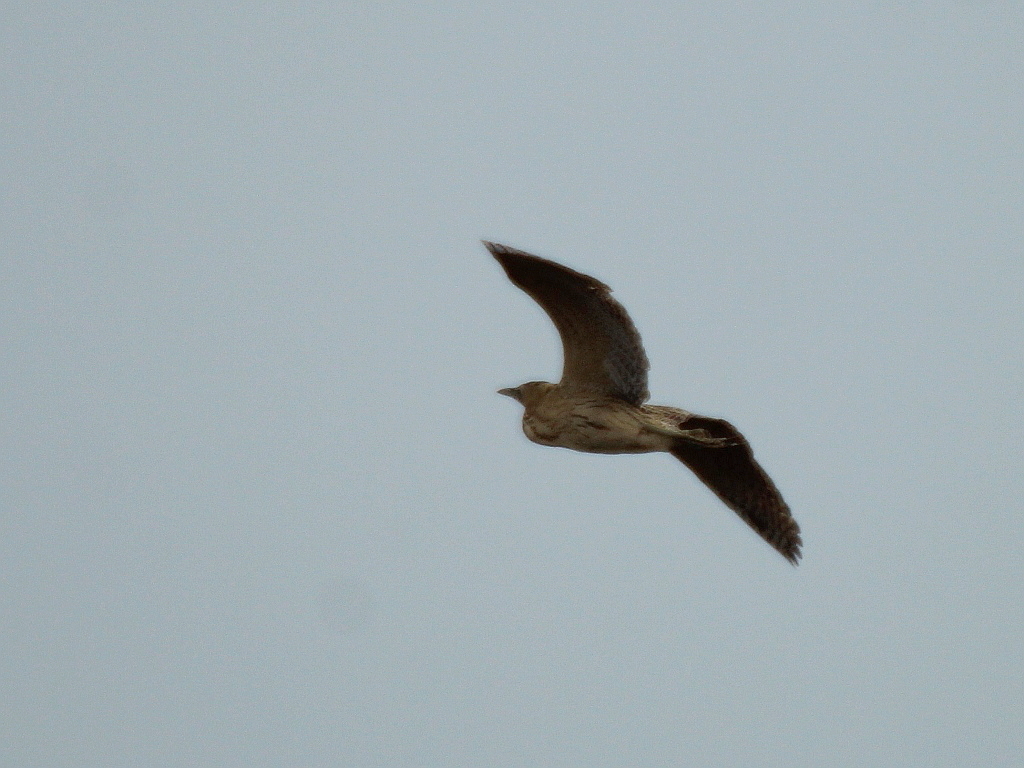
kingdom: Animalia
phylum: Chordata
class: Aves
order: Pelecaniformes
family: Ardeidae
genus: Botaurus
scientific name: Botaurus stellaris
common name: Eurasian bittern
